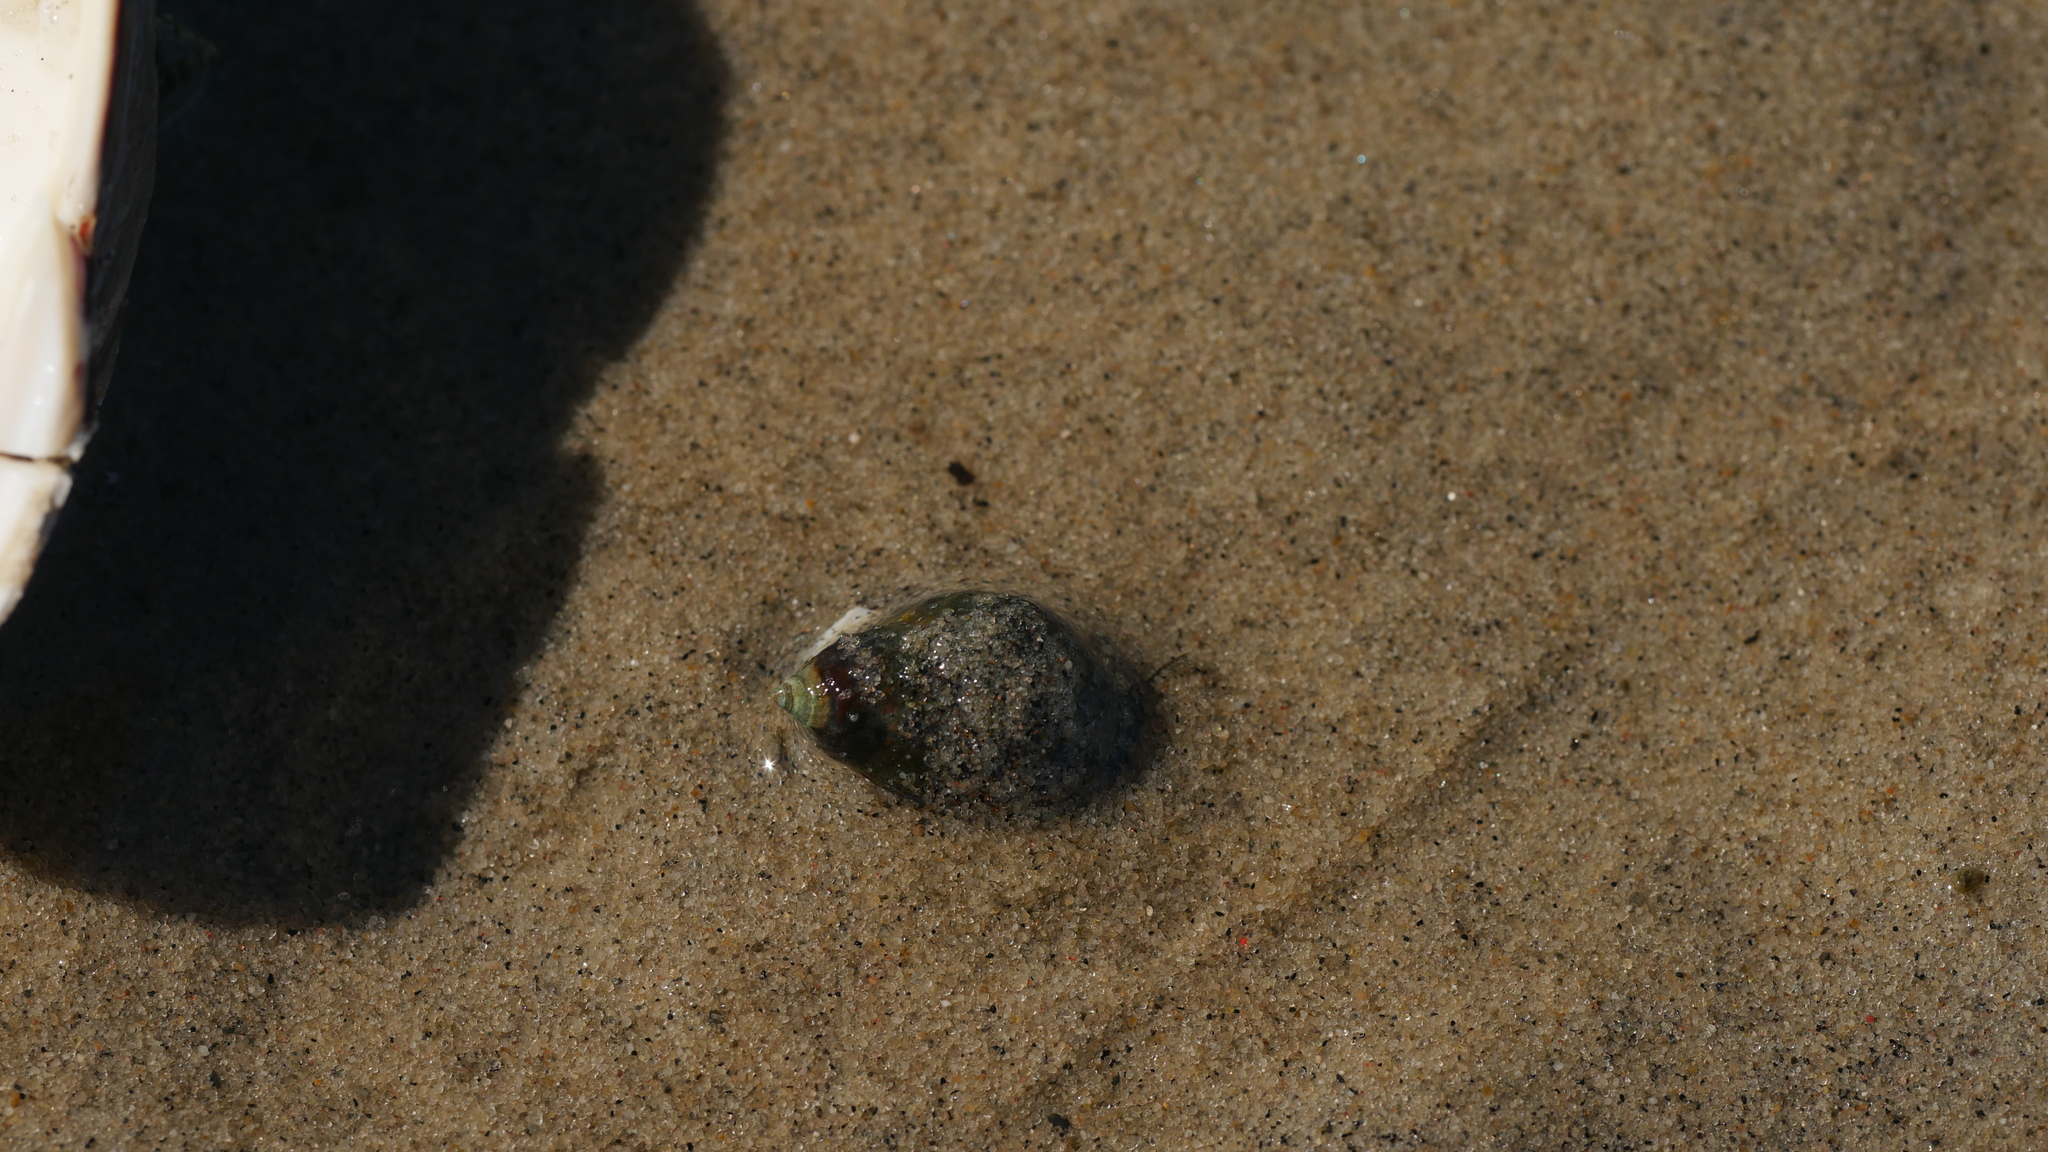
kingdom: Animalia
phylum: Mollusca
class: Gastropoda
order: Neogastropoda
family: Nassariidae
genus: Ilyanassa
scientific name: Ilyanassa obsoleta
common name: Eastern mudsnail
